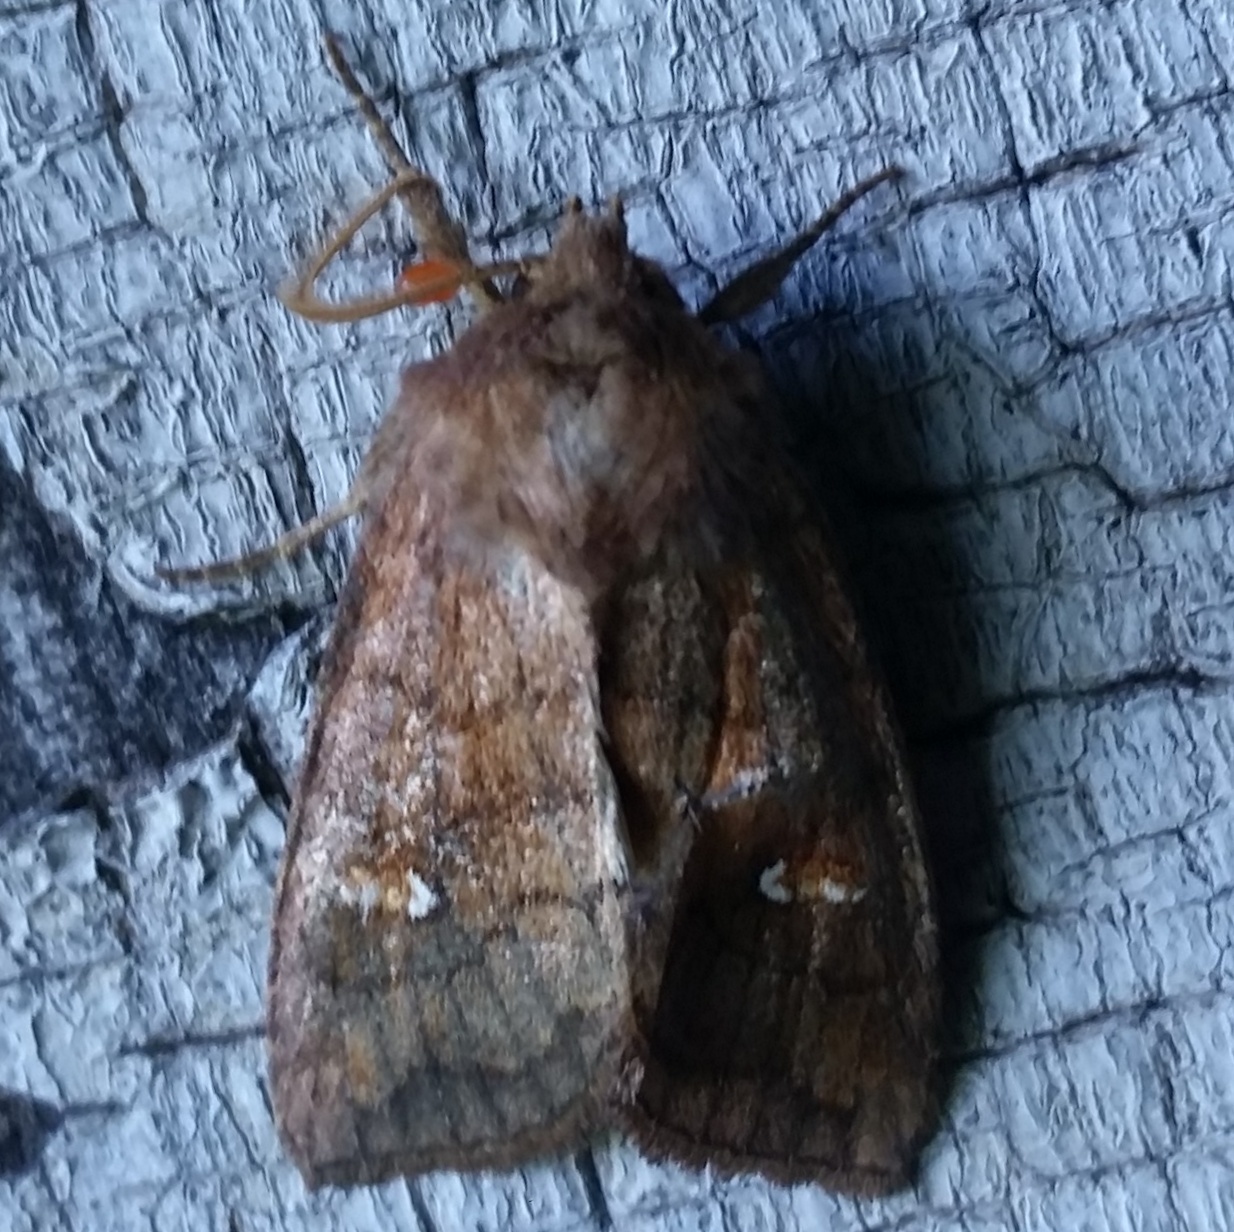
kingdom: Animalia
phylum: Arthropoda
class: Insecta
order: Lepidoptera
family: Noctuidae
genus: Tricholita
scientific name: Tricholita signata
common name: Signate quaker
